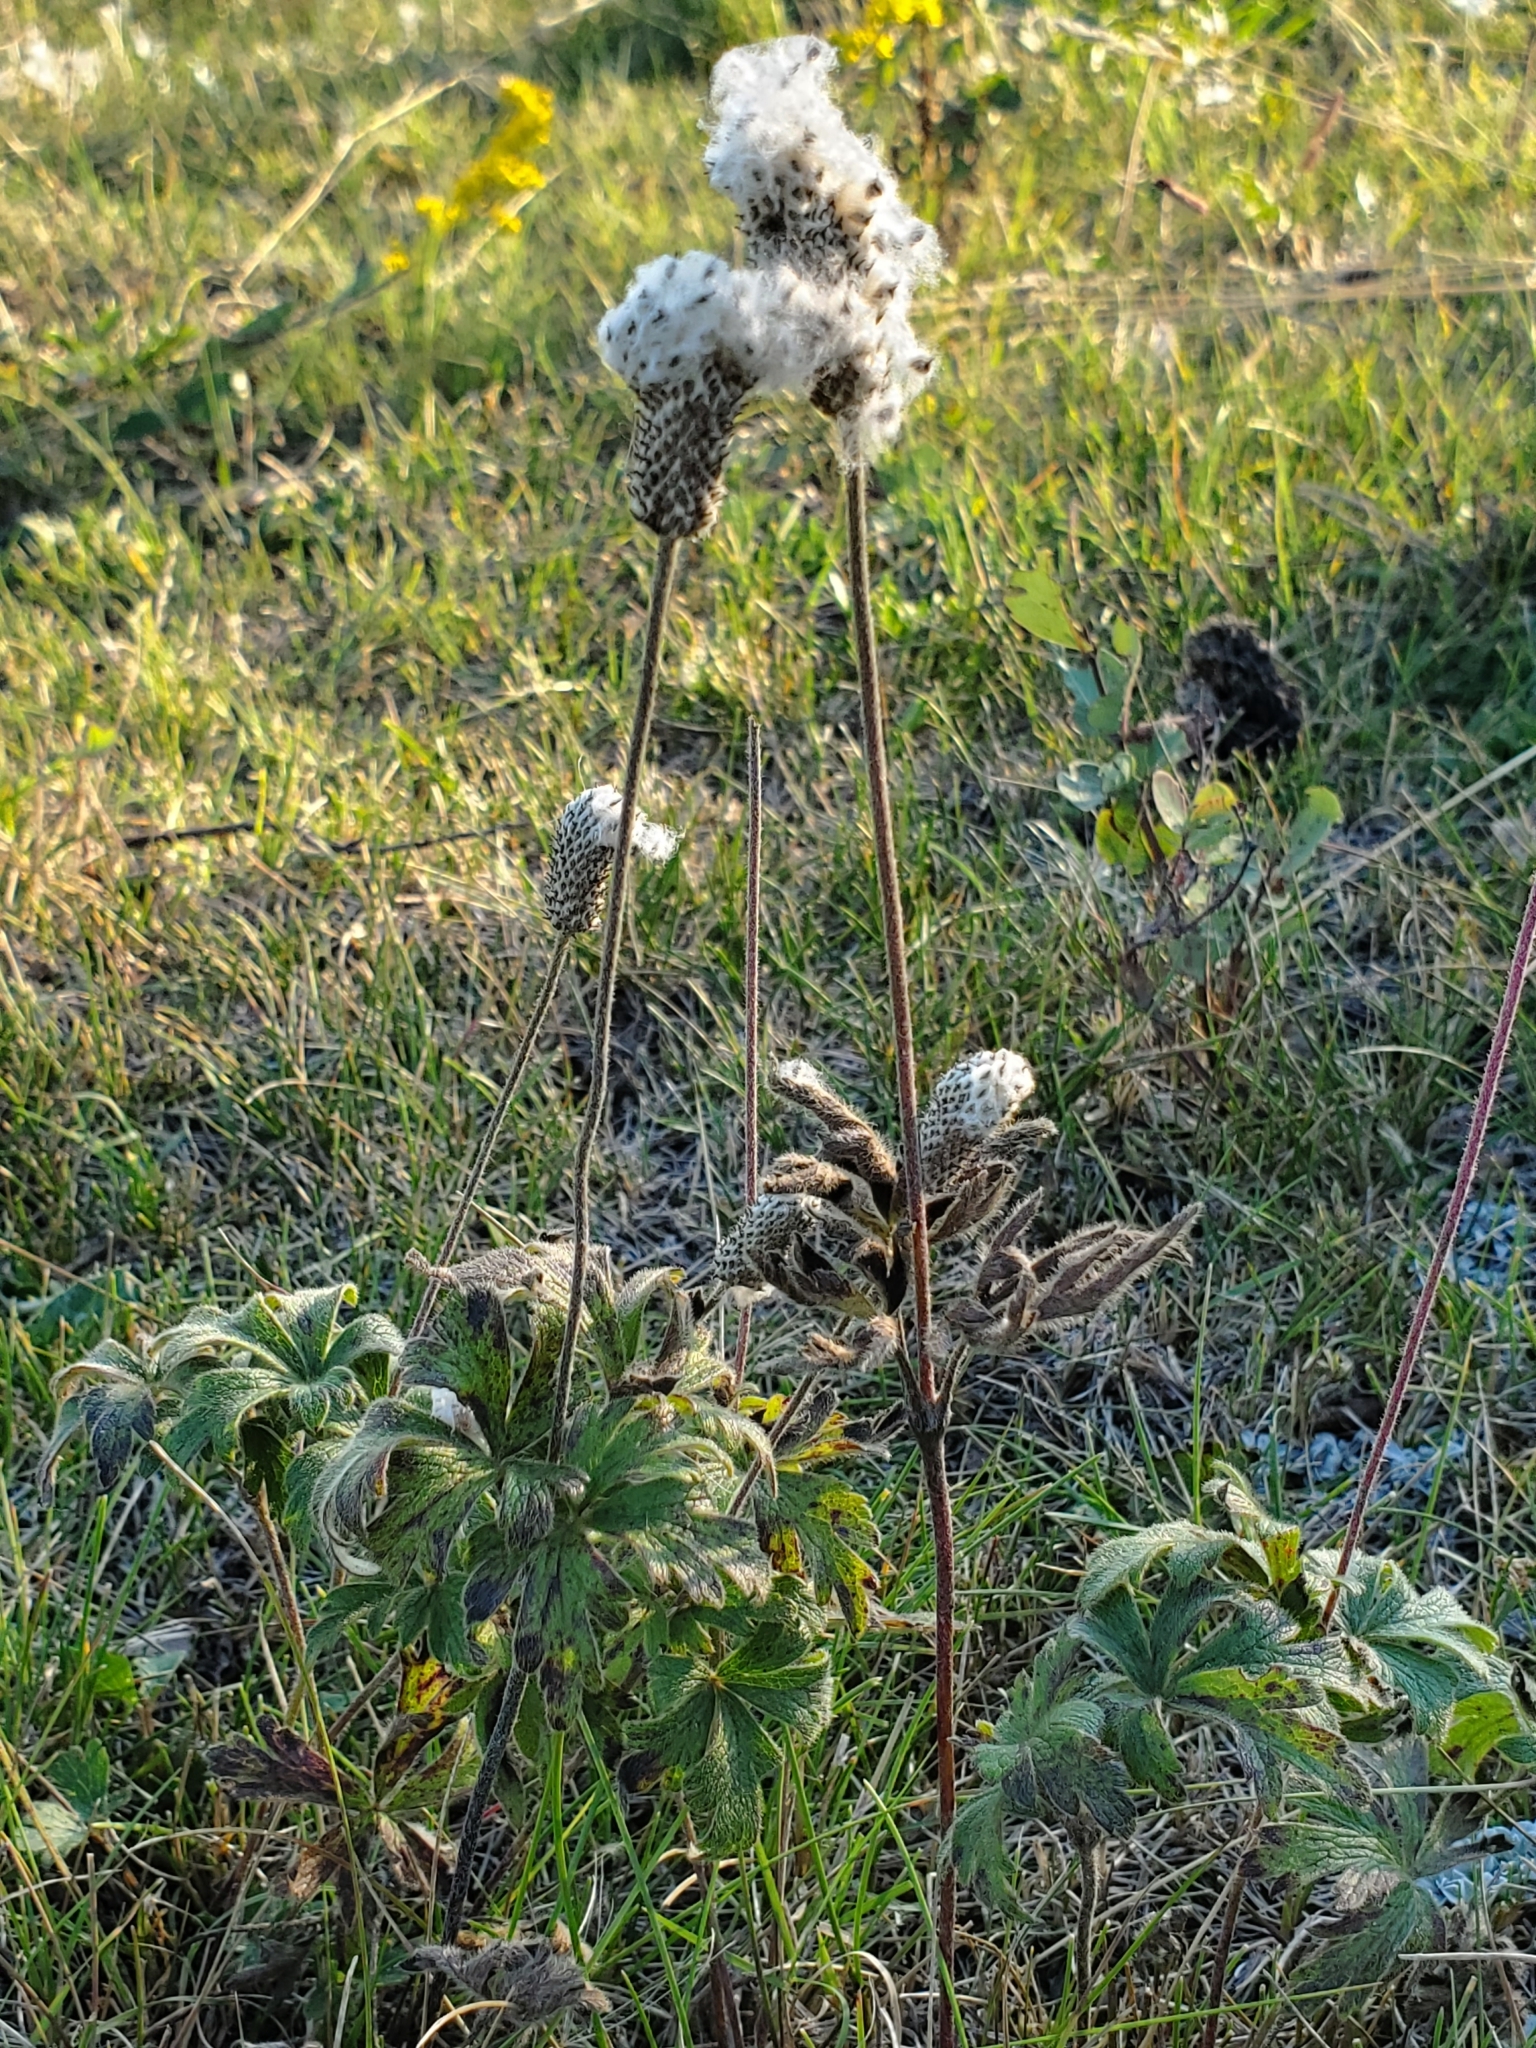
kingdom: Plantae
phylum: Tracheophyta
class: Magnoliopsida
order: Ranunculales
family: Ranunculaceae
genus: Anemone
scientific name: Anemone cylindrica
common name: Candle anemone
